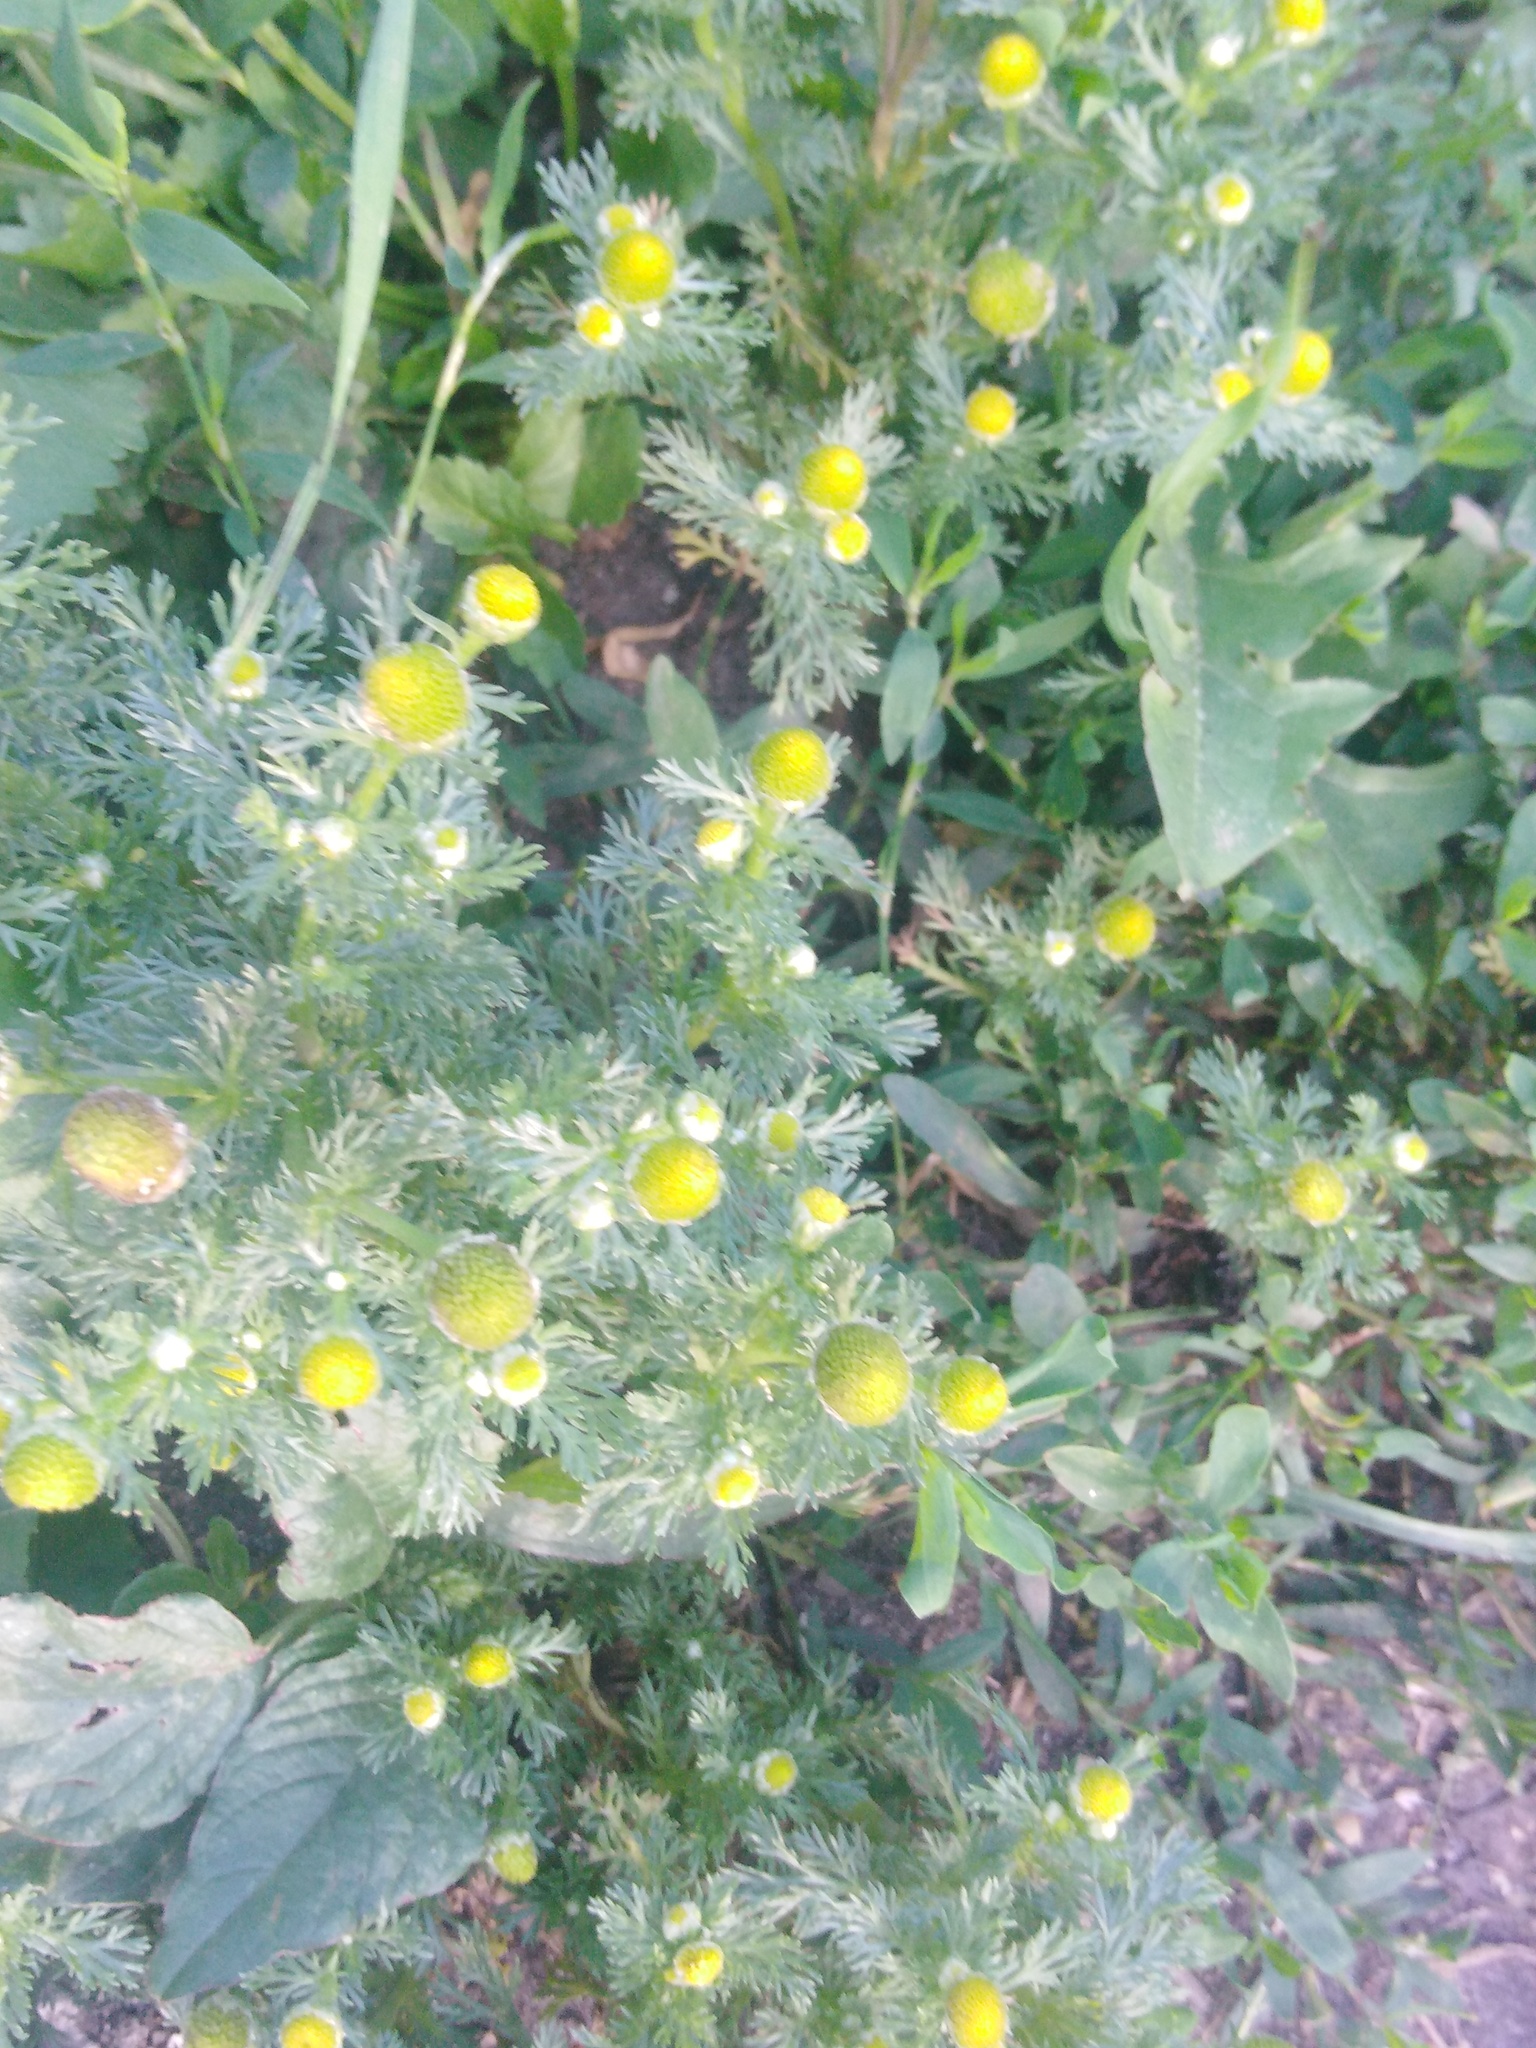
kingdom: Plantae
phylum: Tracheophyta
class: Magnoliopsida
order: Asterales
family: Asteraceae
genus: Matricaria
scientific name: Matricaria discoidea
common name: Disc mayweed
